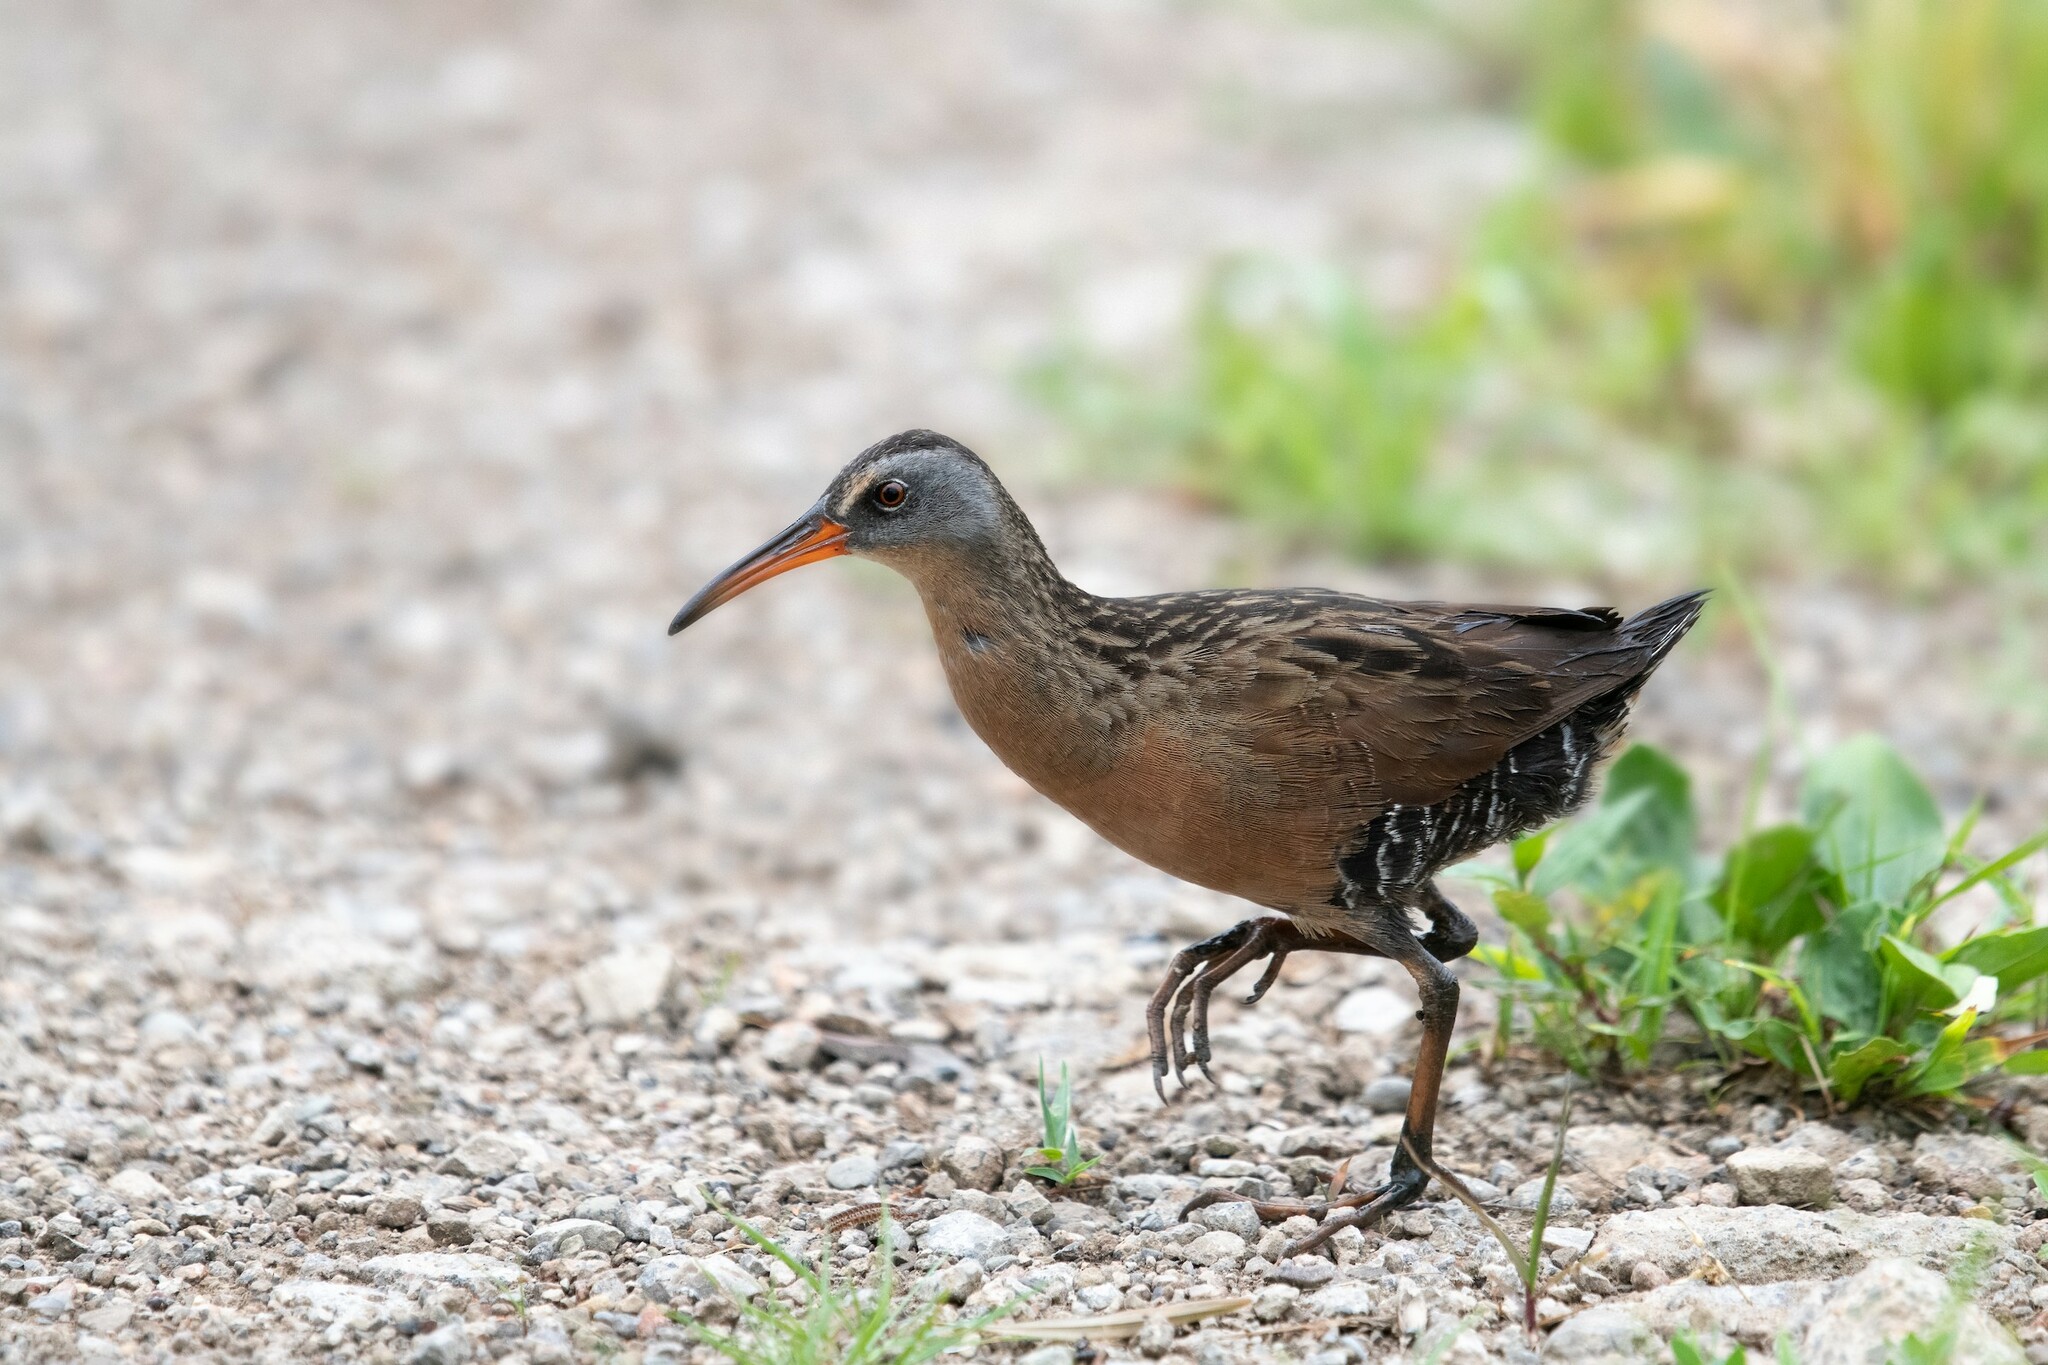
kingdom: Animalia
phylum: Chordata
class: Aves
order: Gruiformes
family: Rallidae
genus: Rallus
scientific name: Rallus limicola
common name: Virginia rail
